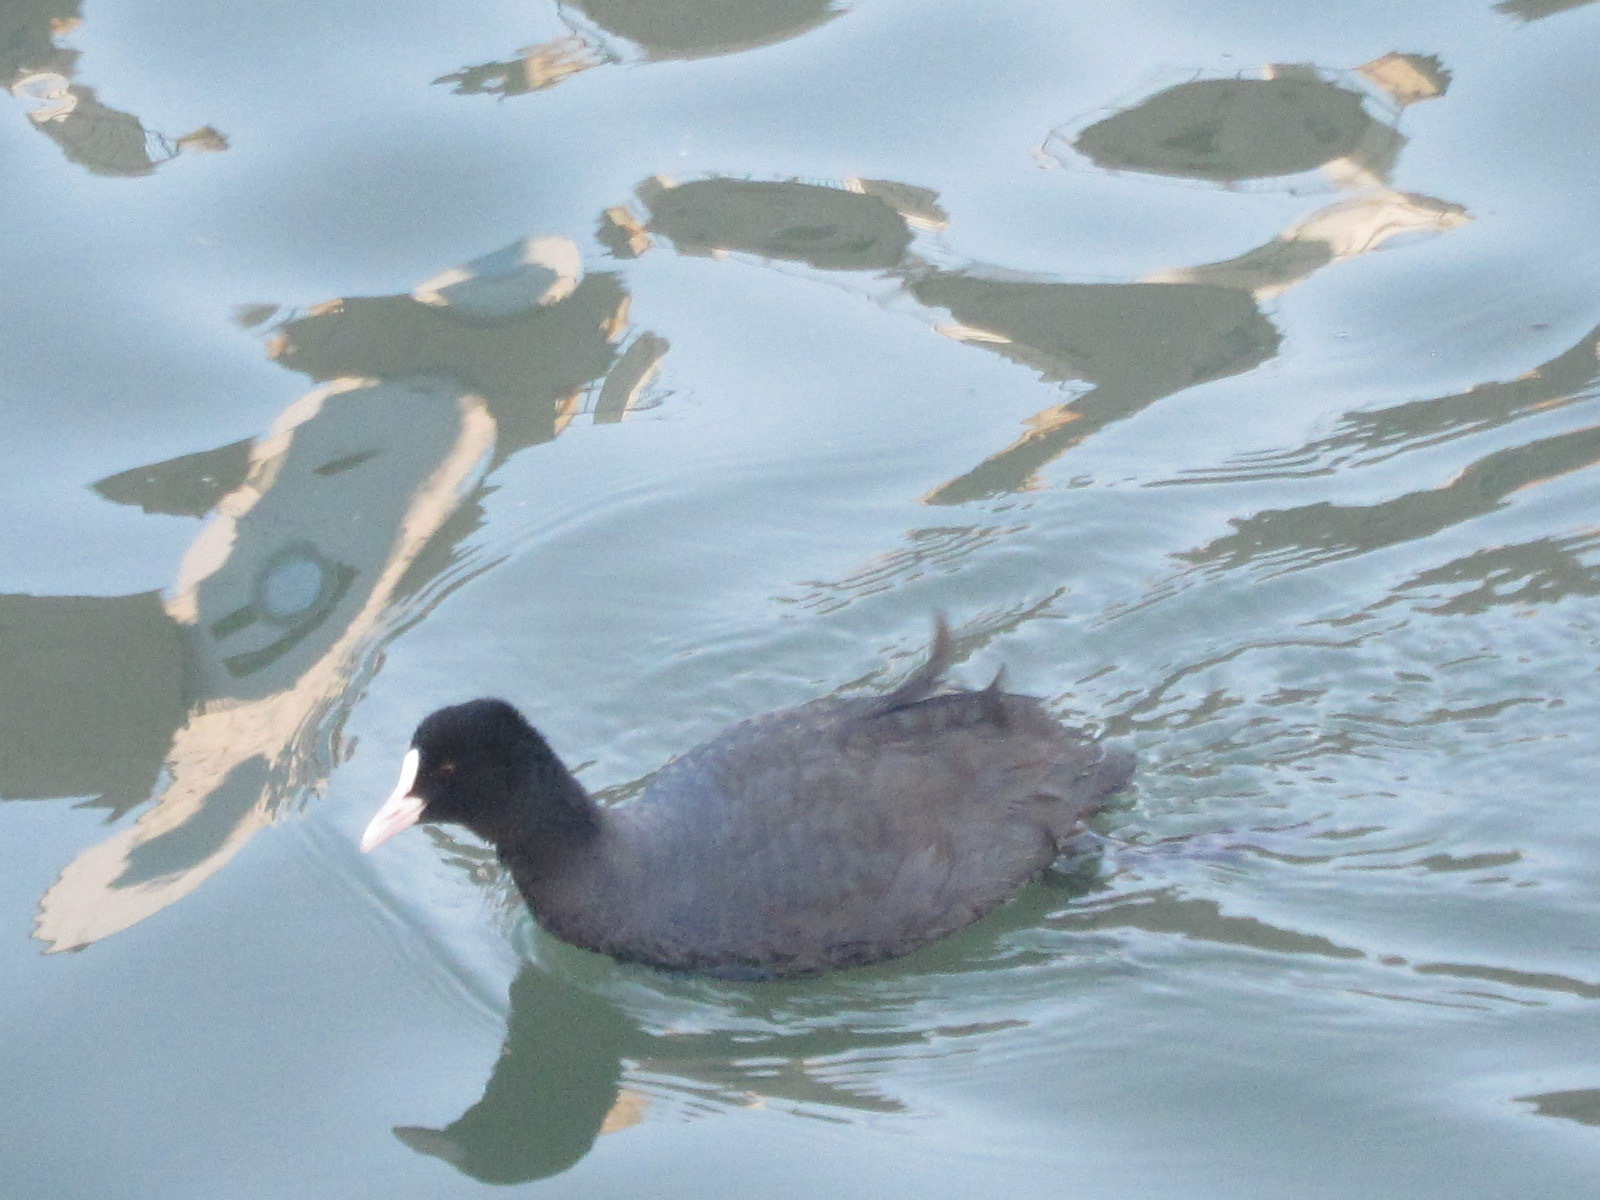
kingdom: Animalia
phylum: Chordata
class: Aves
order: Gruiformes
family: Rallidae
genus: Fulica
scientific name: Fulica atra
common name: Eurasian coot
